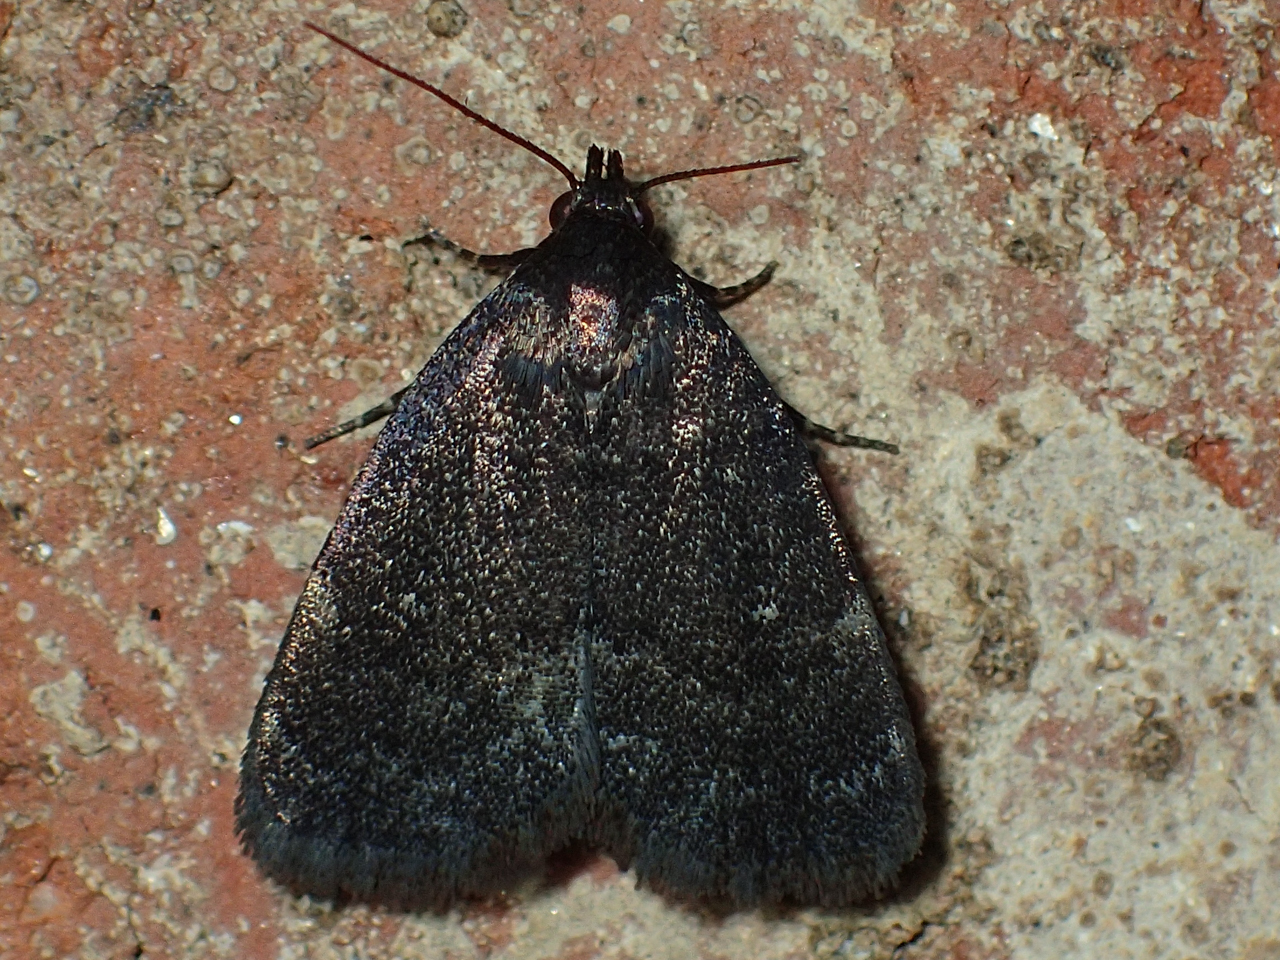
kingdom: Animalia
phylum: Arthropoda
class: Insecta
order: Lepidoptera
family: Erebidae
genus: Idia
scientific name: Idia rotundalis
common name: Rotund idia moth
